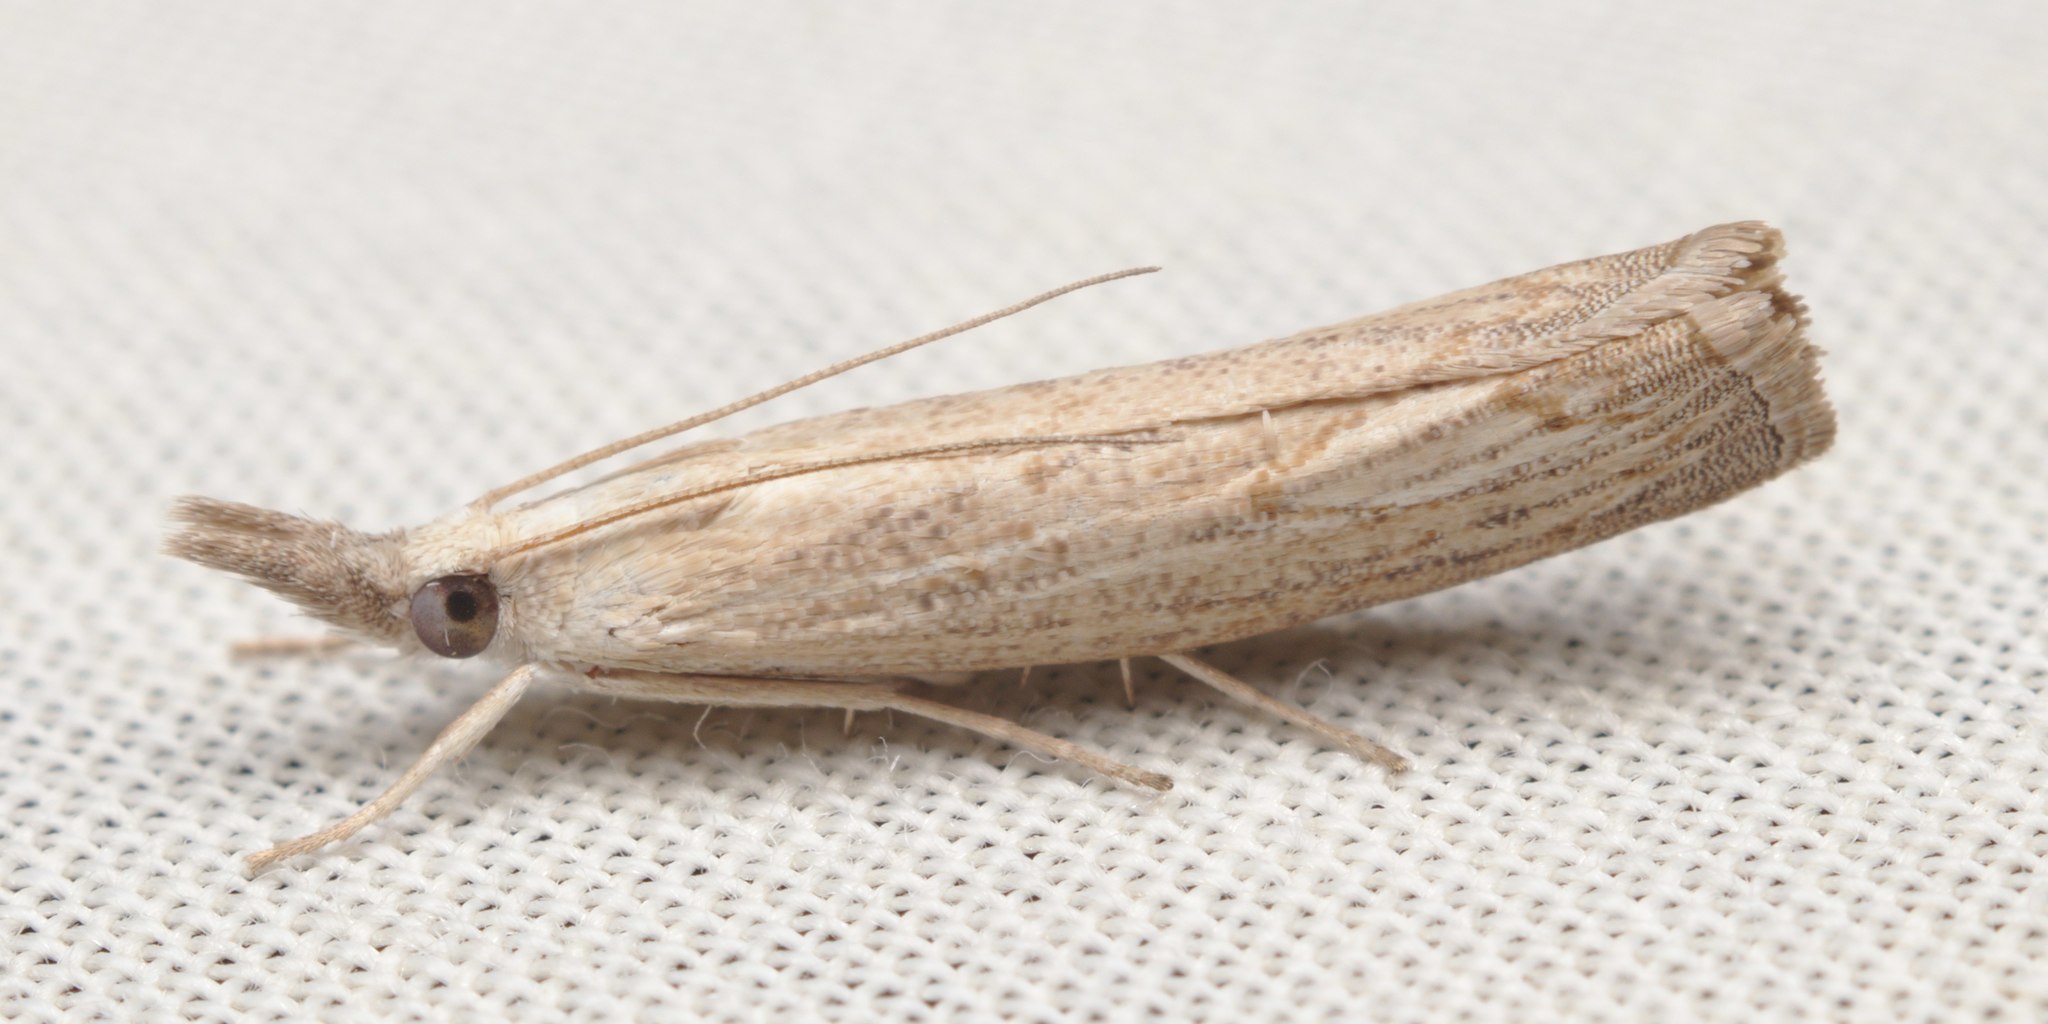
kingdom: Animalia
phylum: Arthropoda
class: Insecta
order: Lepidoptera
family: Crambidae
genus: Culladia
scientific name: Culladia cuneiferellus
